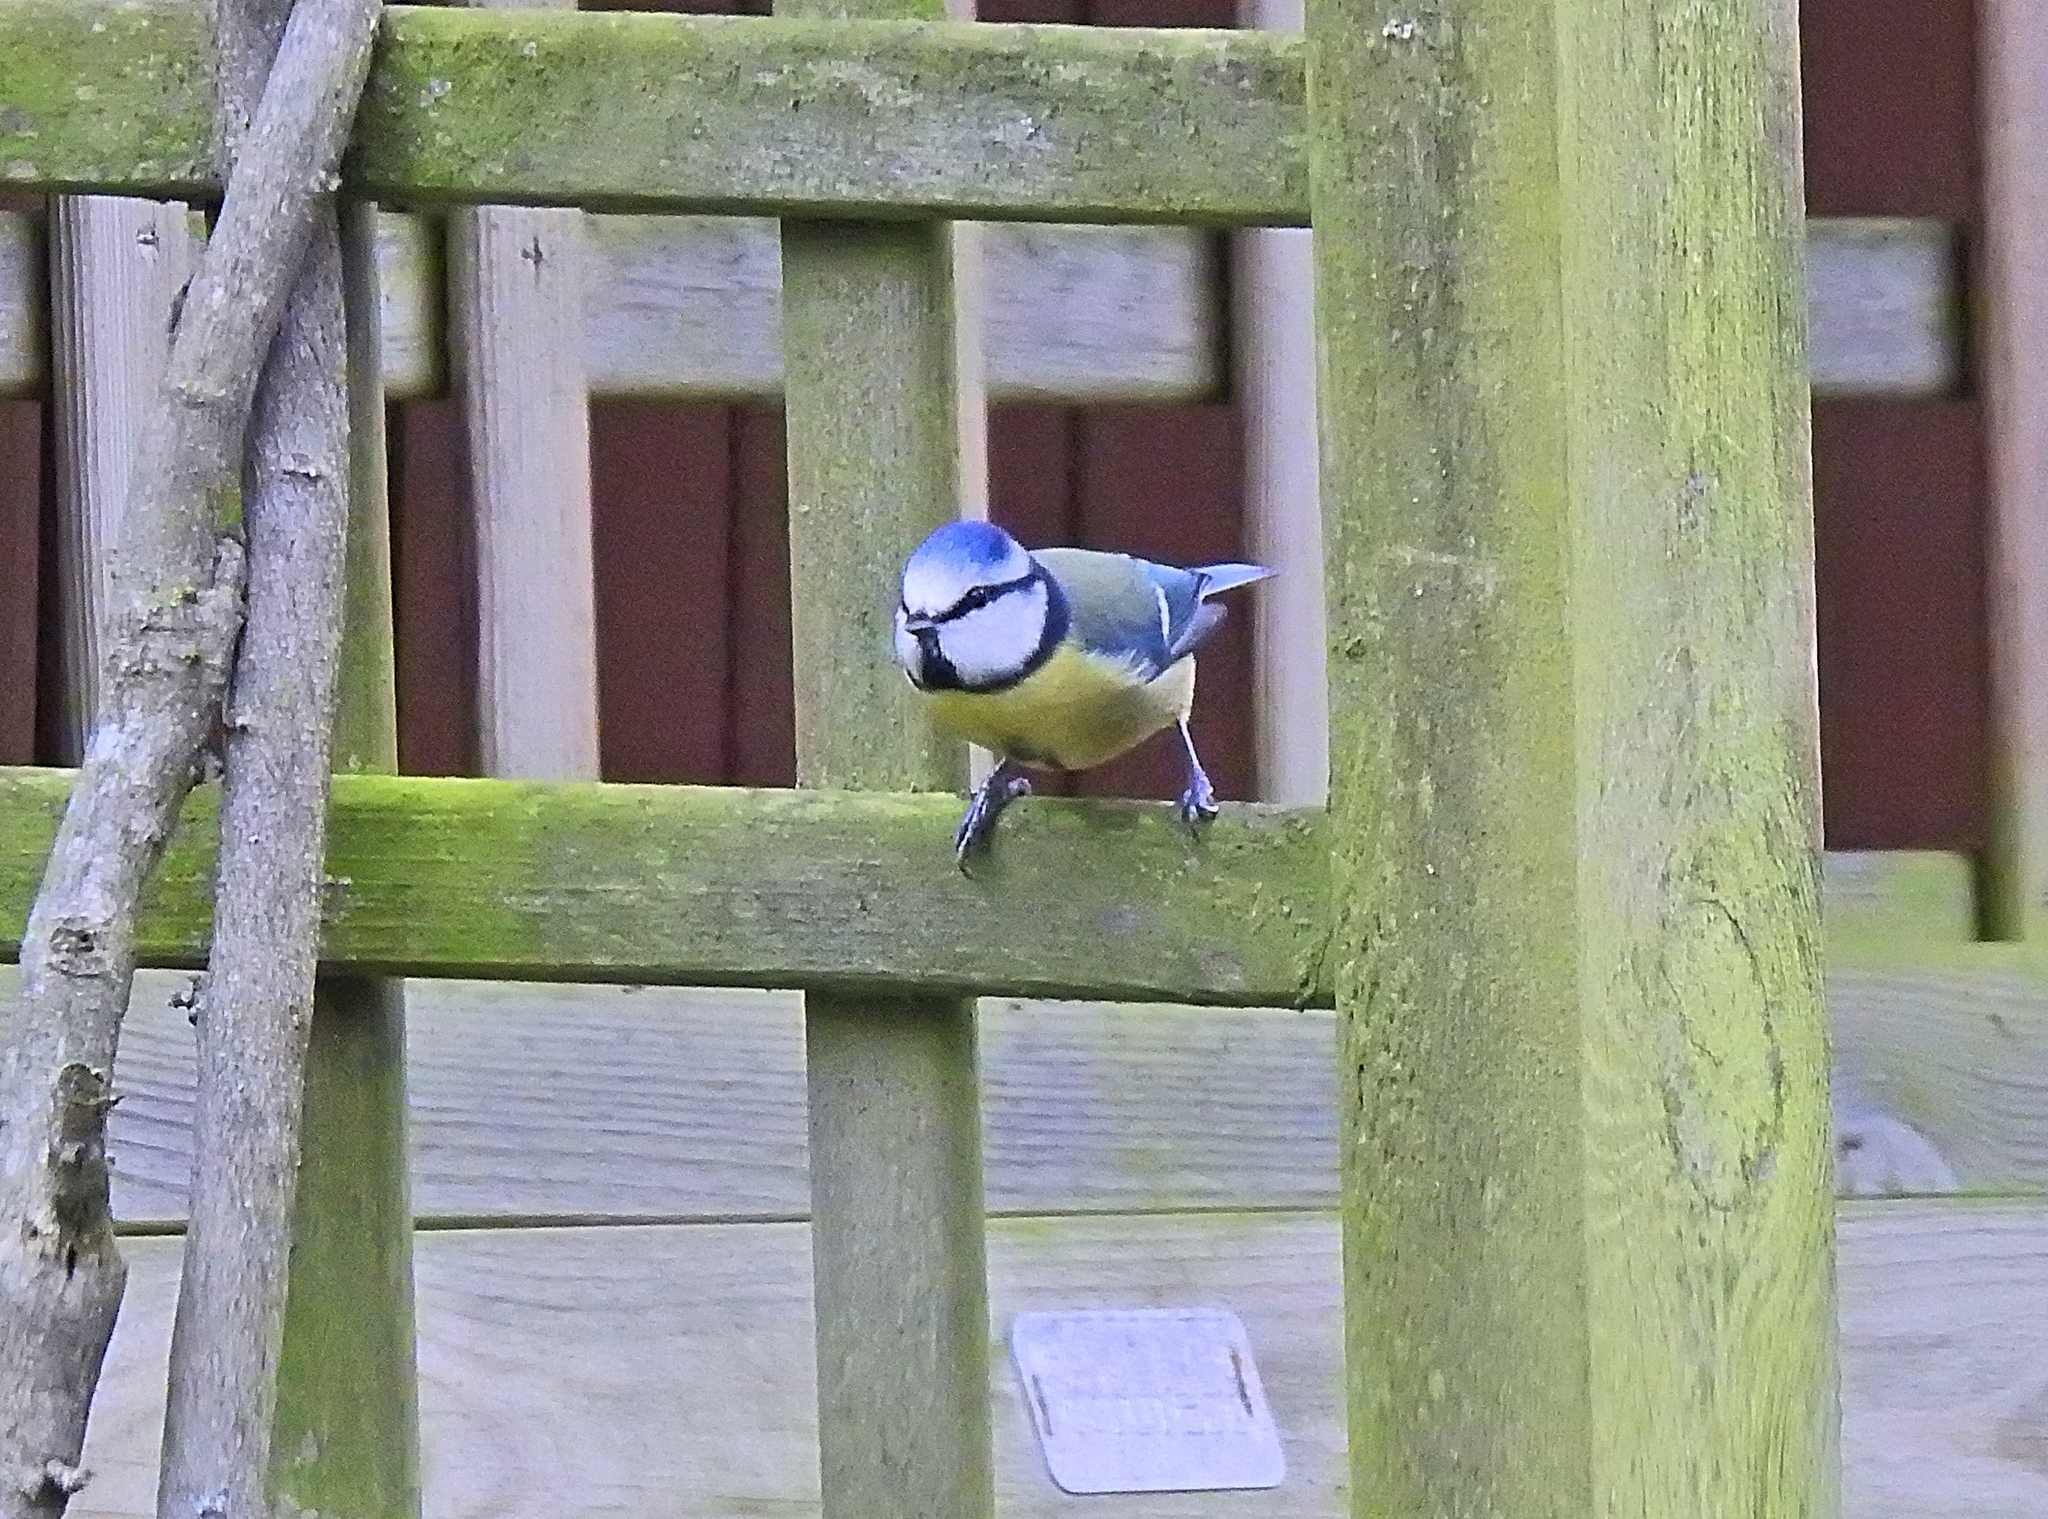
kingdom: Animalia
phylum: Chordata
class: Aves
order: Passeriformes
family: Paridae
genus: Cyanistes
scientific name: Cyanistes caeruleus
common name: Eurasian blue tit
